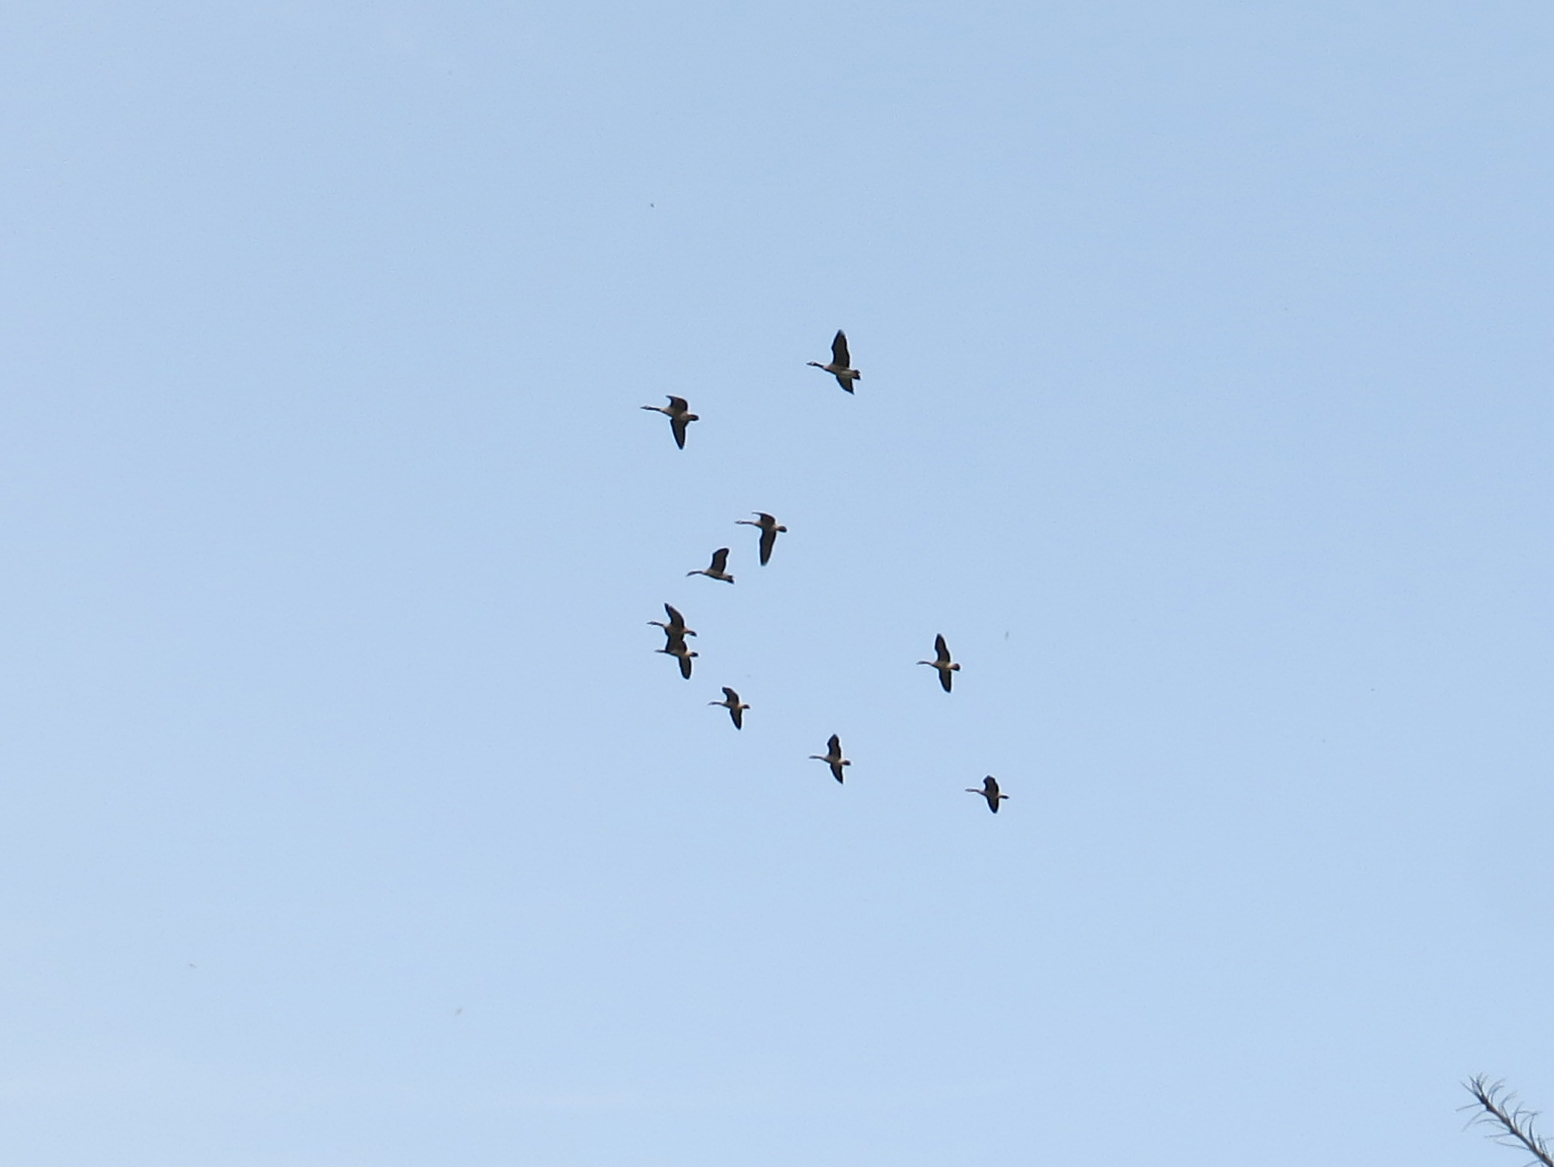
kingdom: Animalia
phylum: Chordata
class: Aves
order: Anseriformes
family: Anatidae
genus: Branta
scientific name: Branta canadensis
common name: Canada goose
